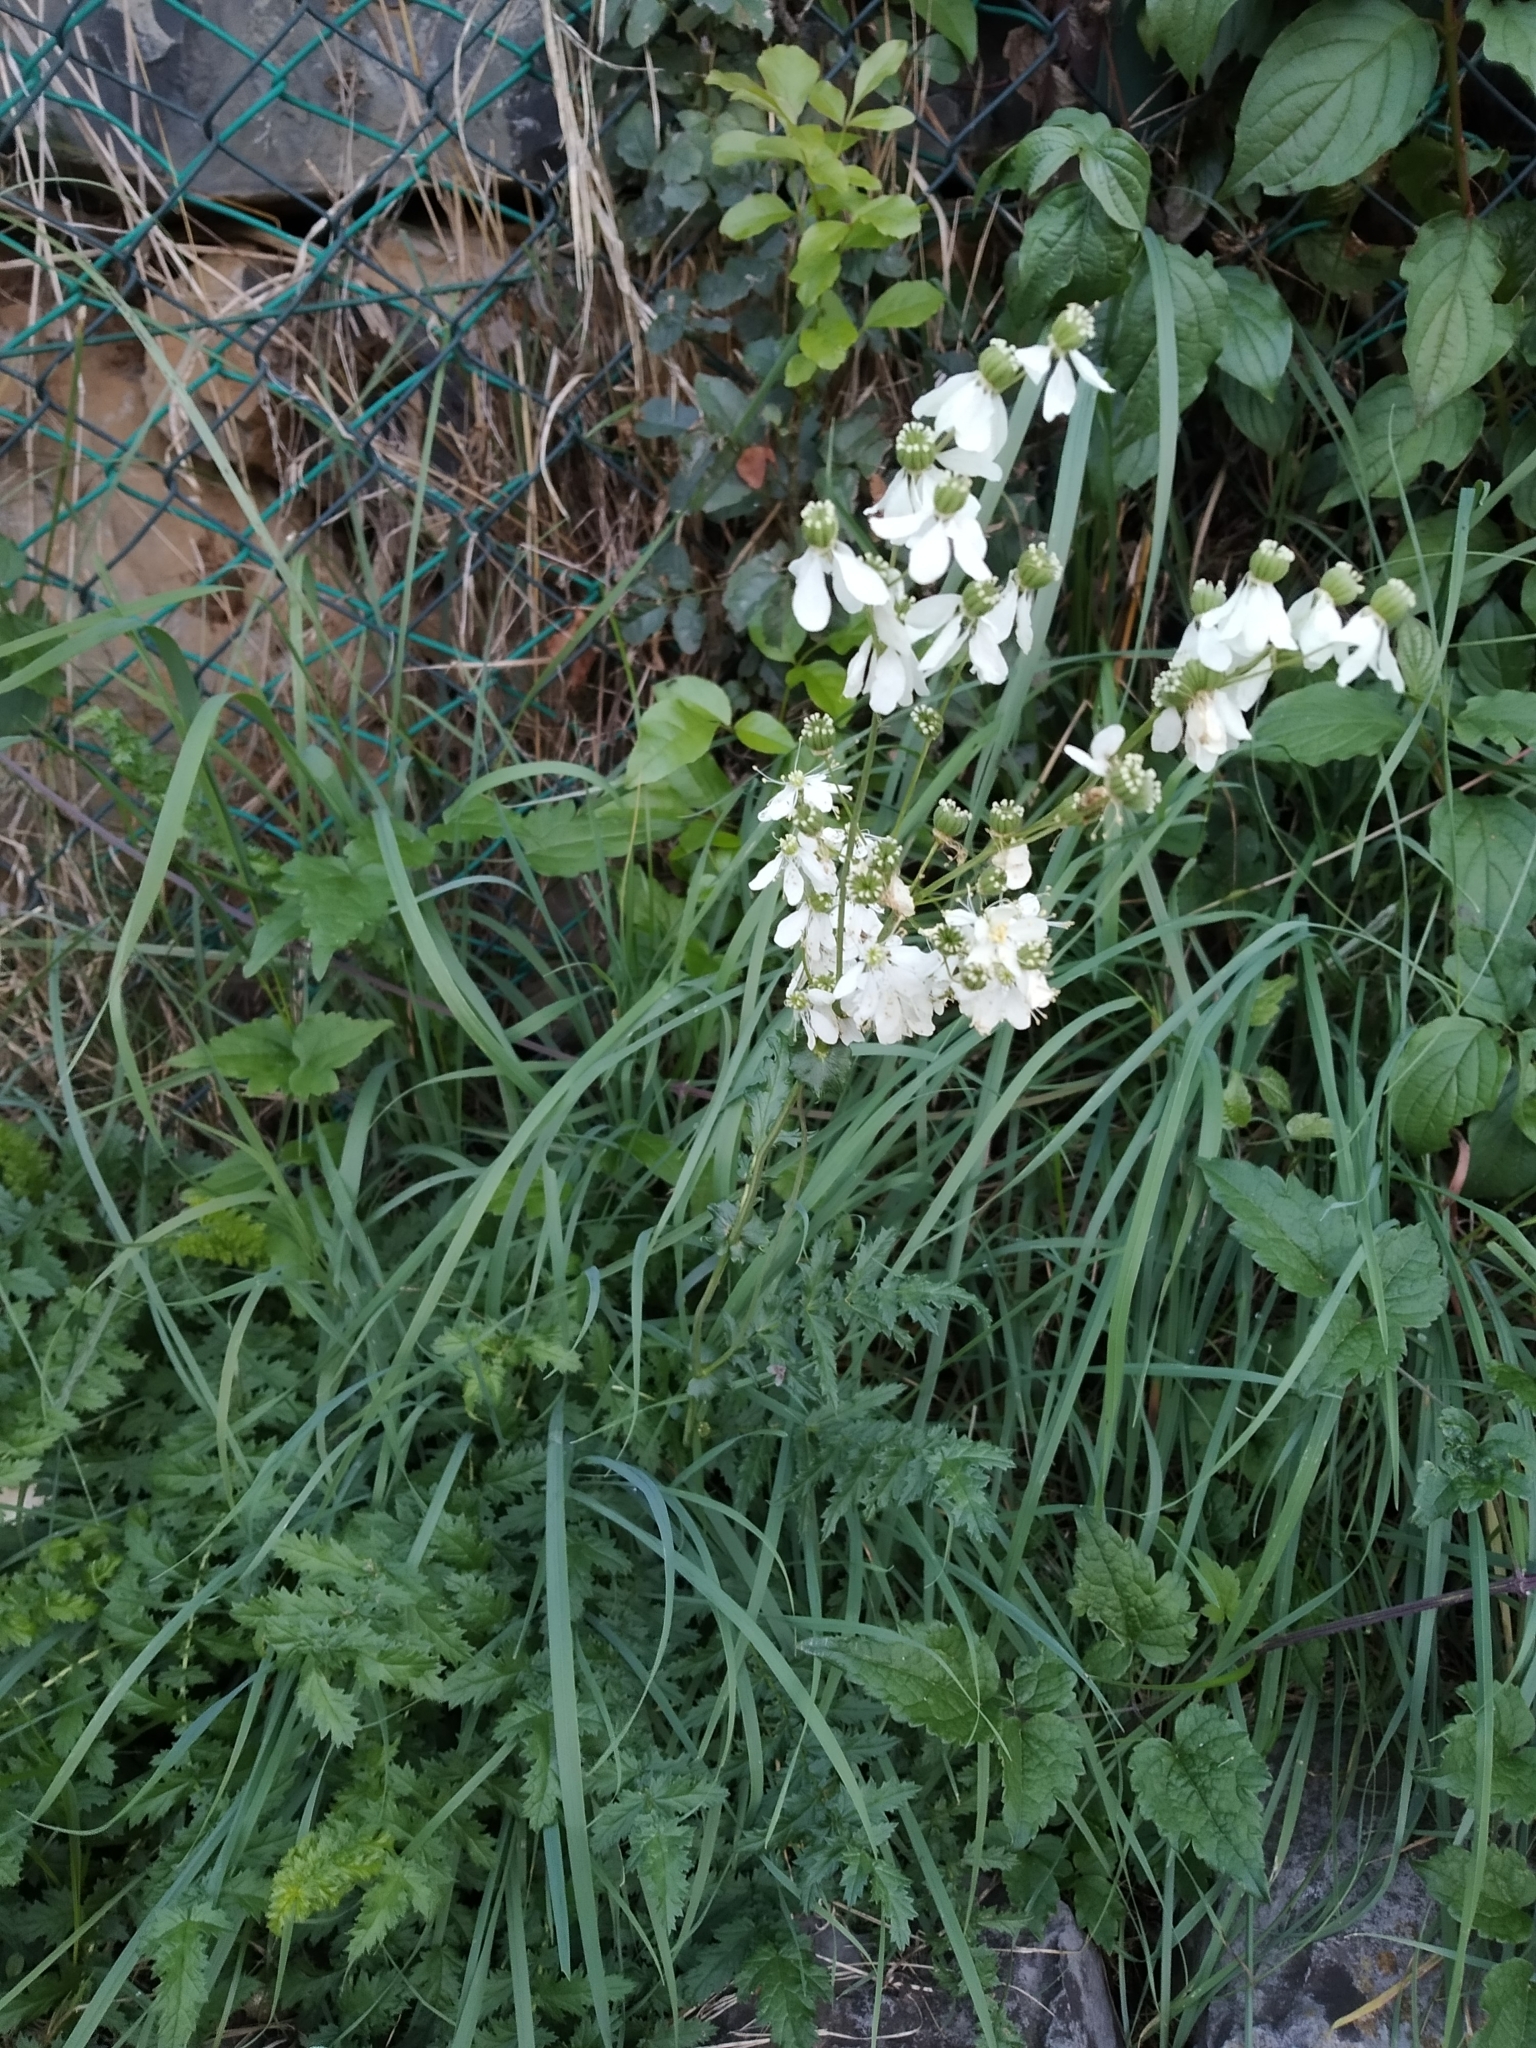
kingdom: Plantae
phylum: Tracheophyta
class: Magnoliopsida
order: Rosales
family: Rosaceae
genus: Filipendula
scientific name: Filipendula vulgaris
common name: Dropwort
